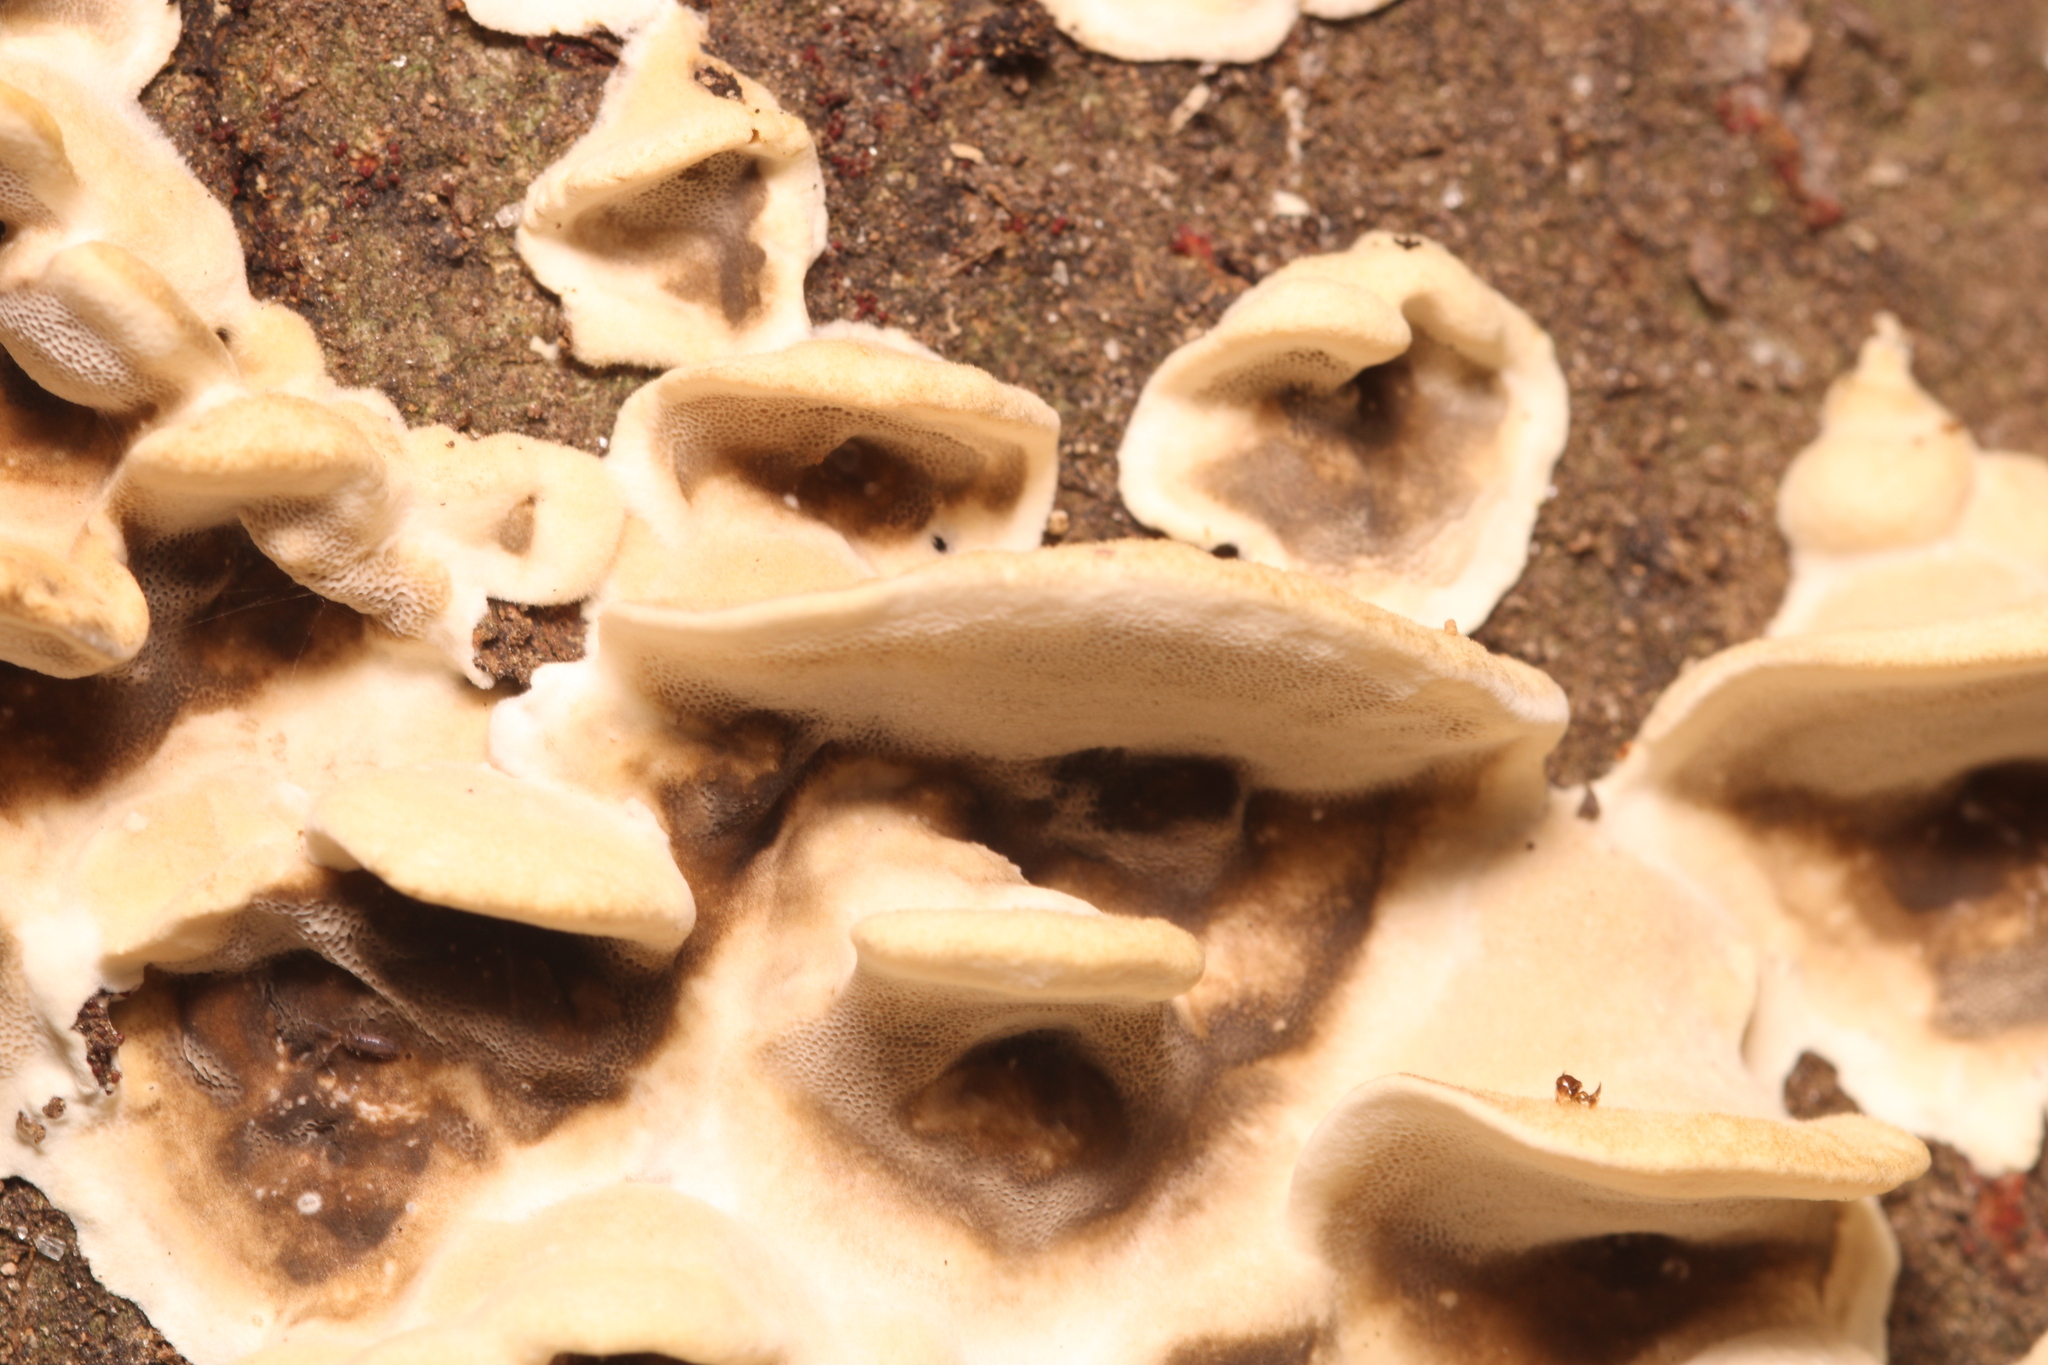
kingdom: Fungi
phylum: Basidiomycota
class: Agaricomycetes
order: Polyporales
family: Phanerochaetaceae
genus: Bjerkandera
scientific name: Bjerkandera adusta
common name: Smoky bracket
